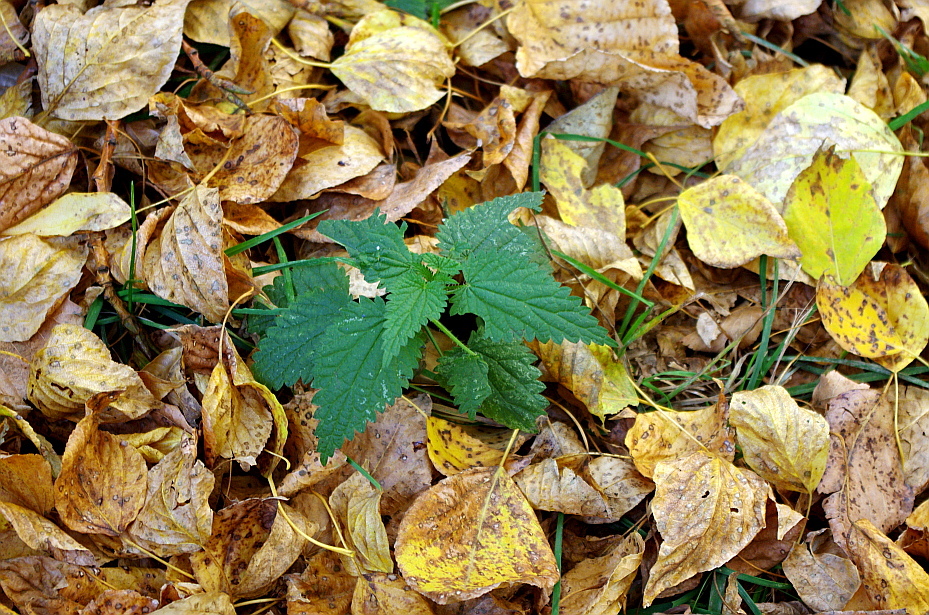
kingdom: Plantae
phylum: Tracheophyta
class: Magnoliopsida
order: Rosales
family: Urticaceae
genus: Urtica
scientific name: Urtica dioica
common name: Common nettle
